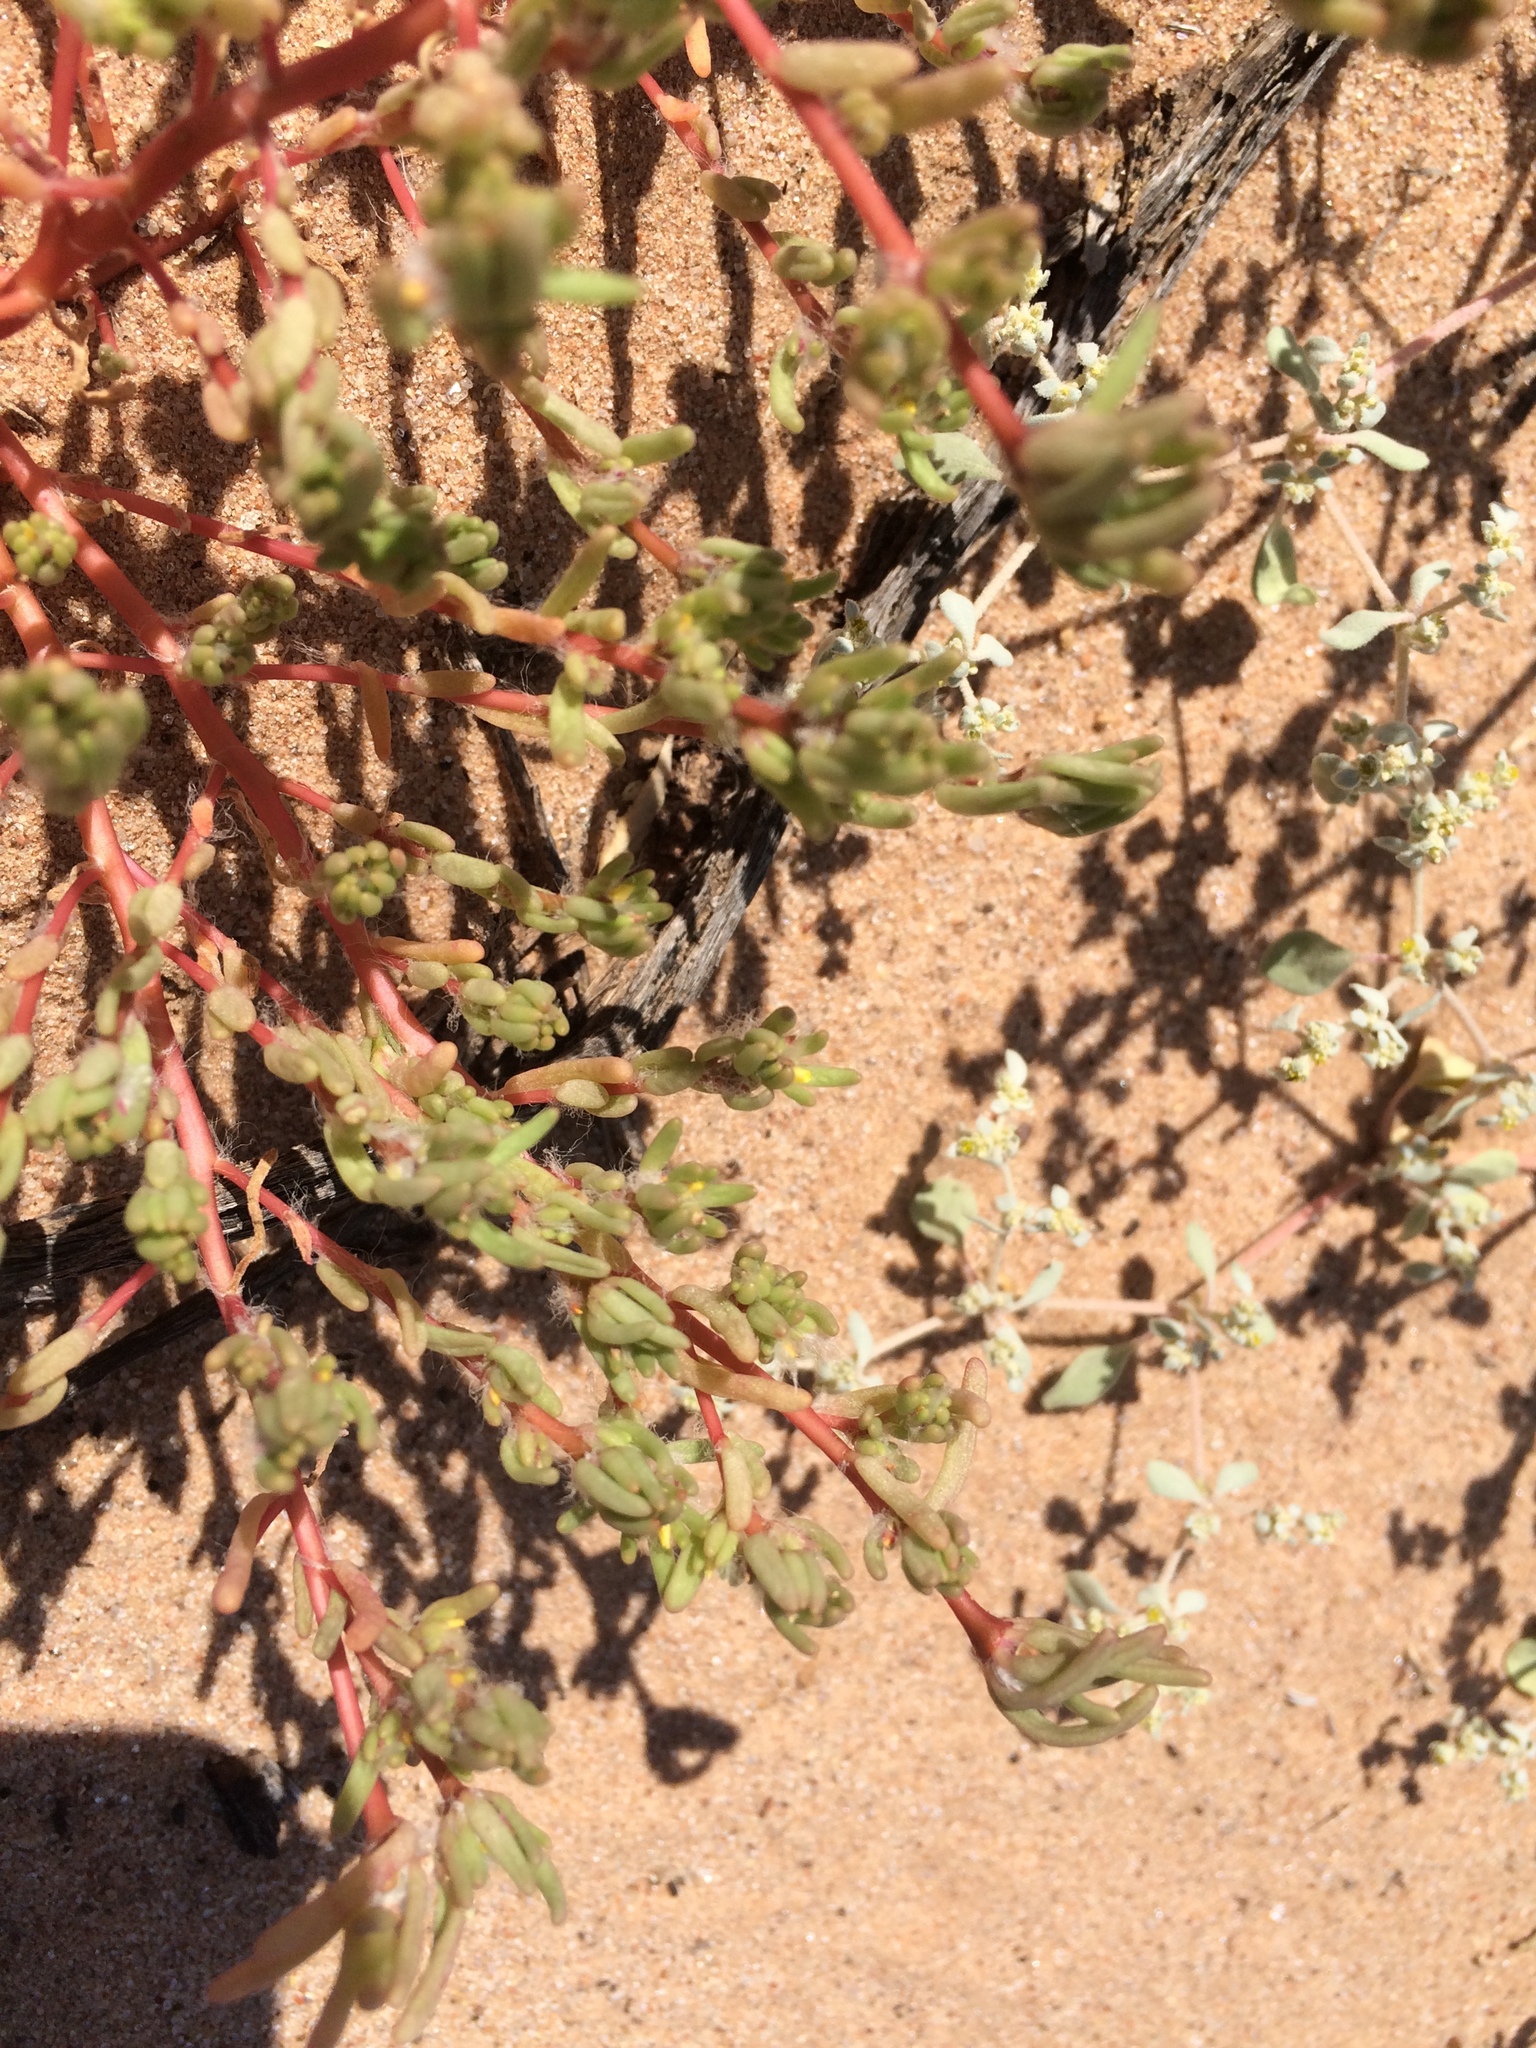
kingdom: Plantae
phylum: Tracheophyta
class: Magnoliopsida
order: Caryophyllales
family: Portulacaceae
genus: Portulaca
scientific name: Portulaca halimoides
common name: Silk cotton purslane
